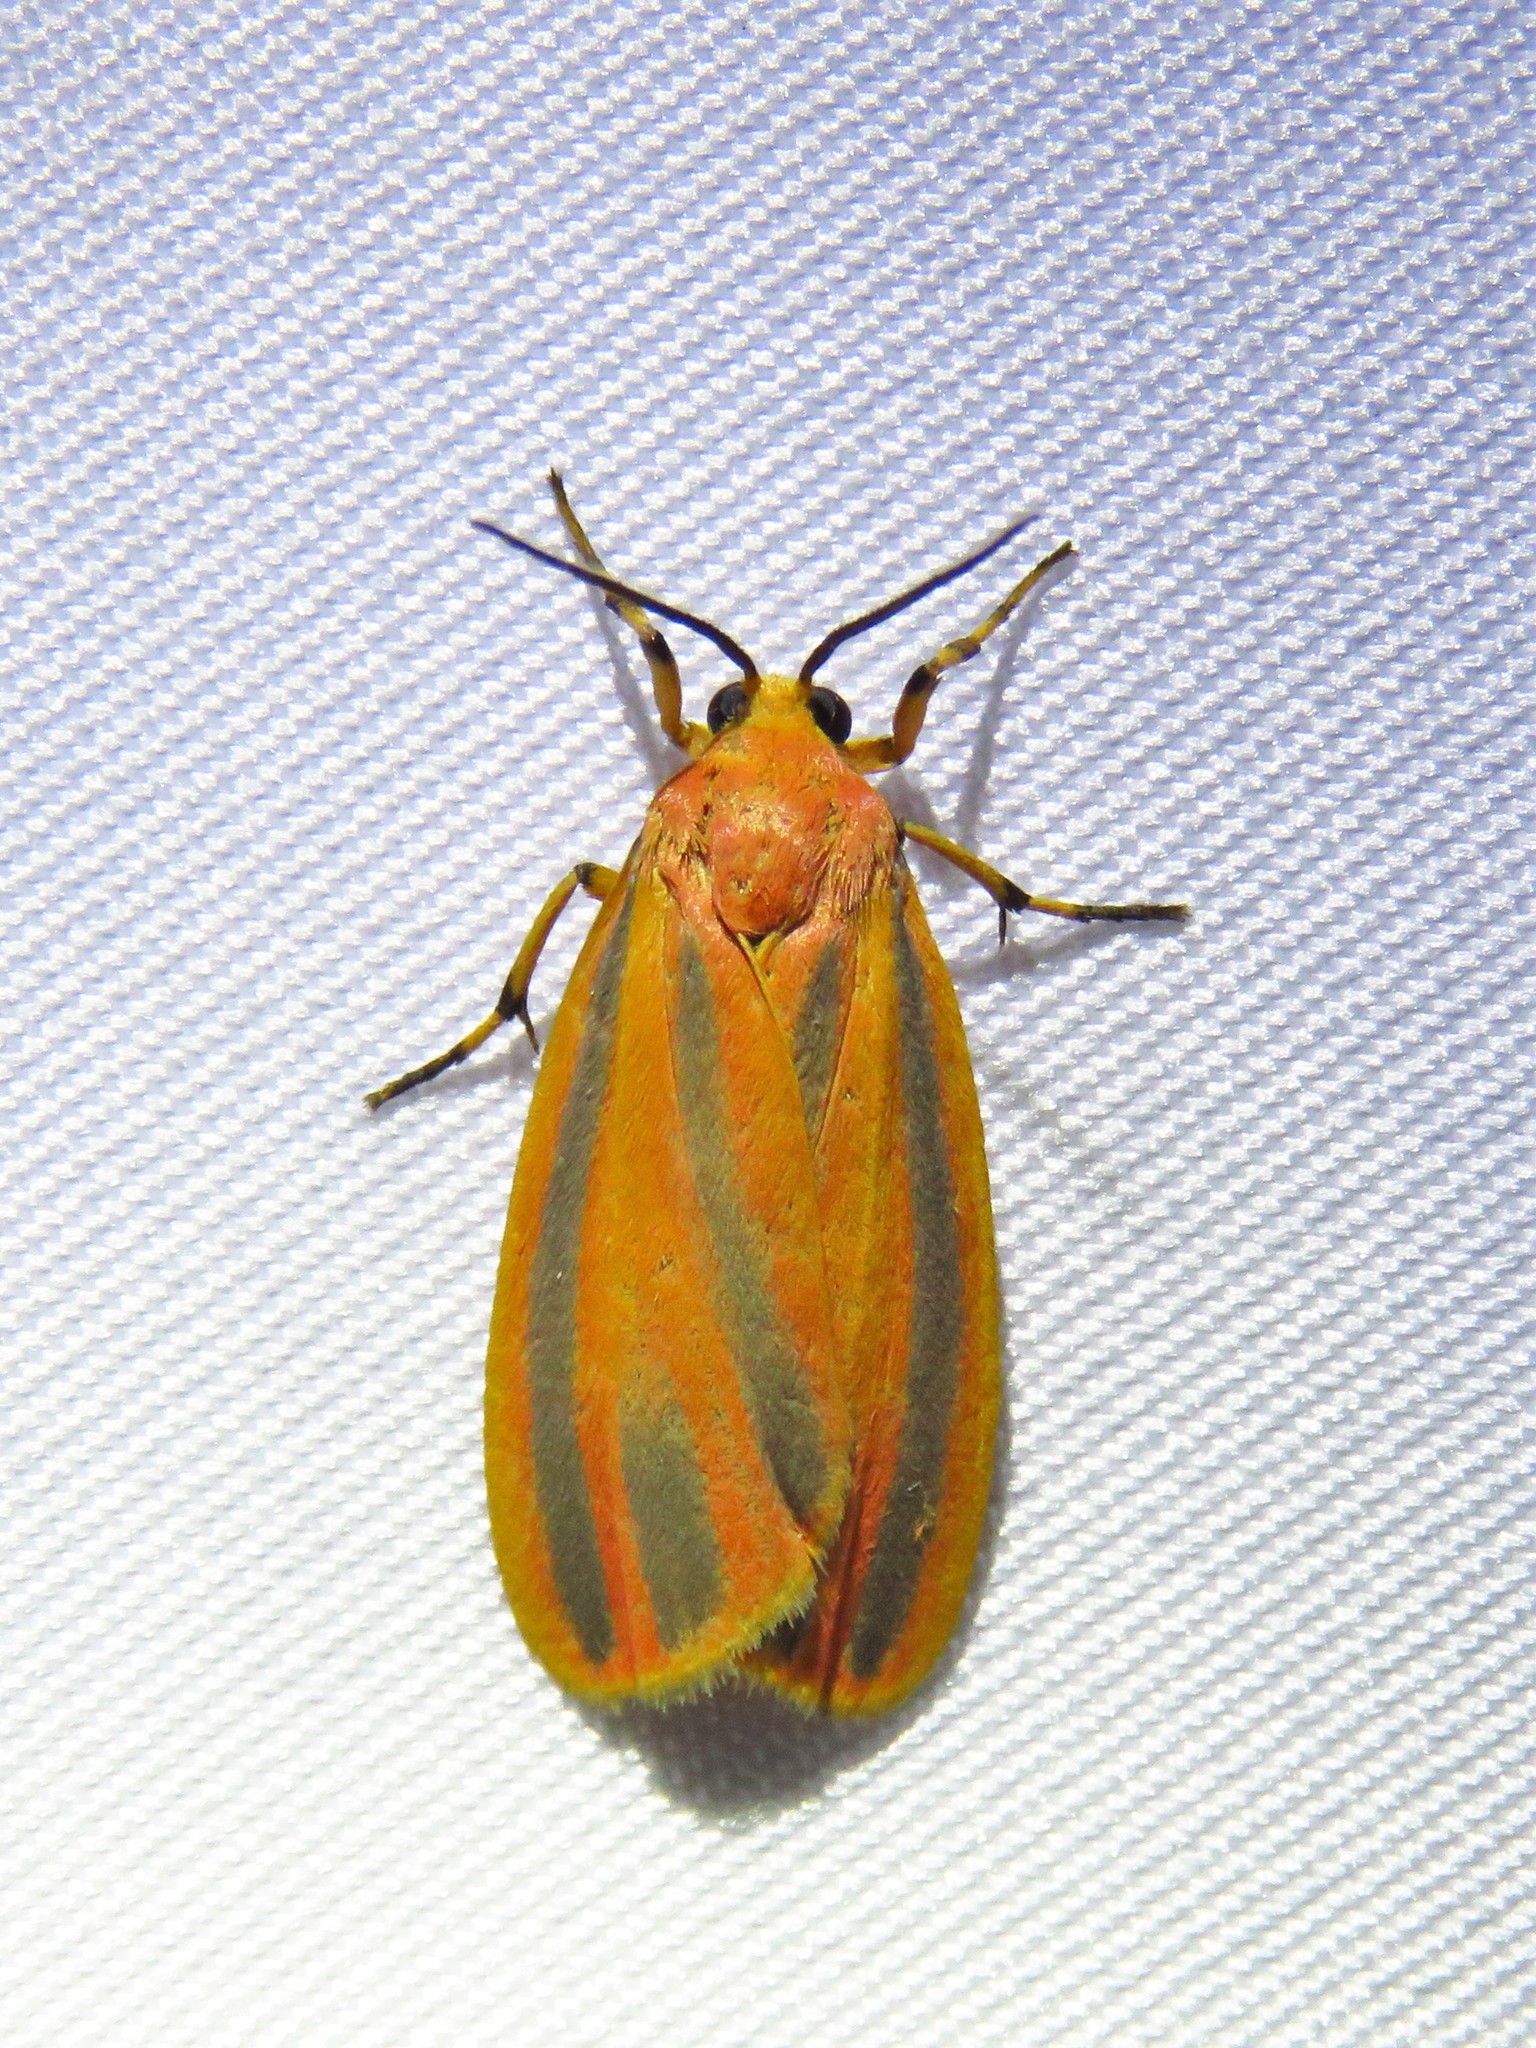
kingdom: Animalia
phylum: Arthropoda
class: Insecta
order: Lepidoptera
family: Erebidae
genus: Hypoprepia
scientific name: Hypoprepia fucosa
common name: Painted lichen moth
